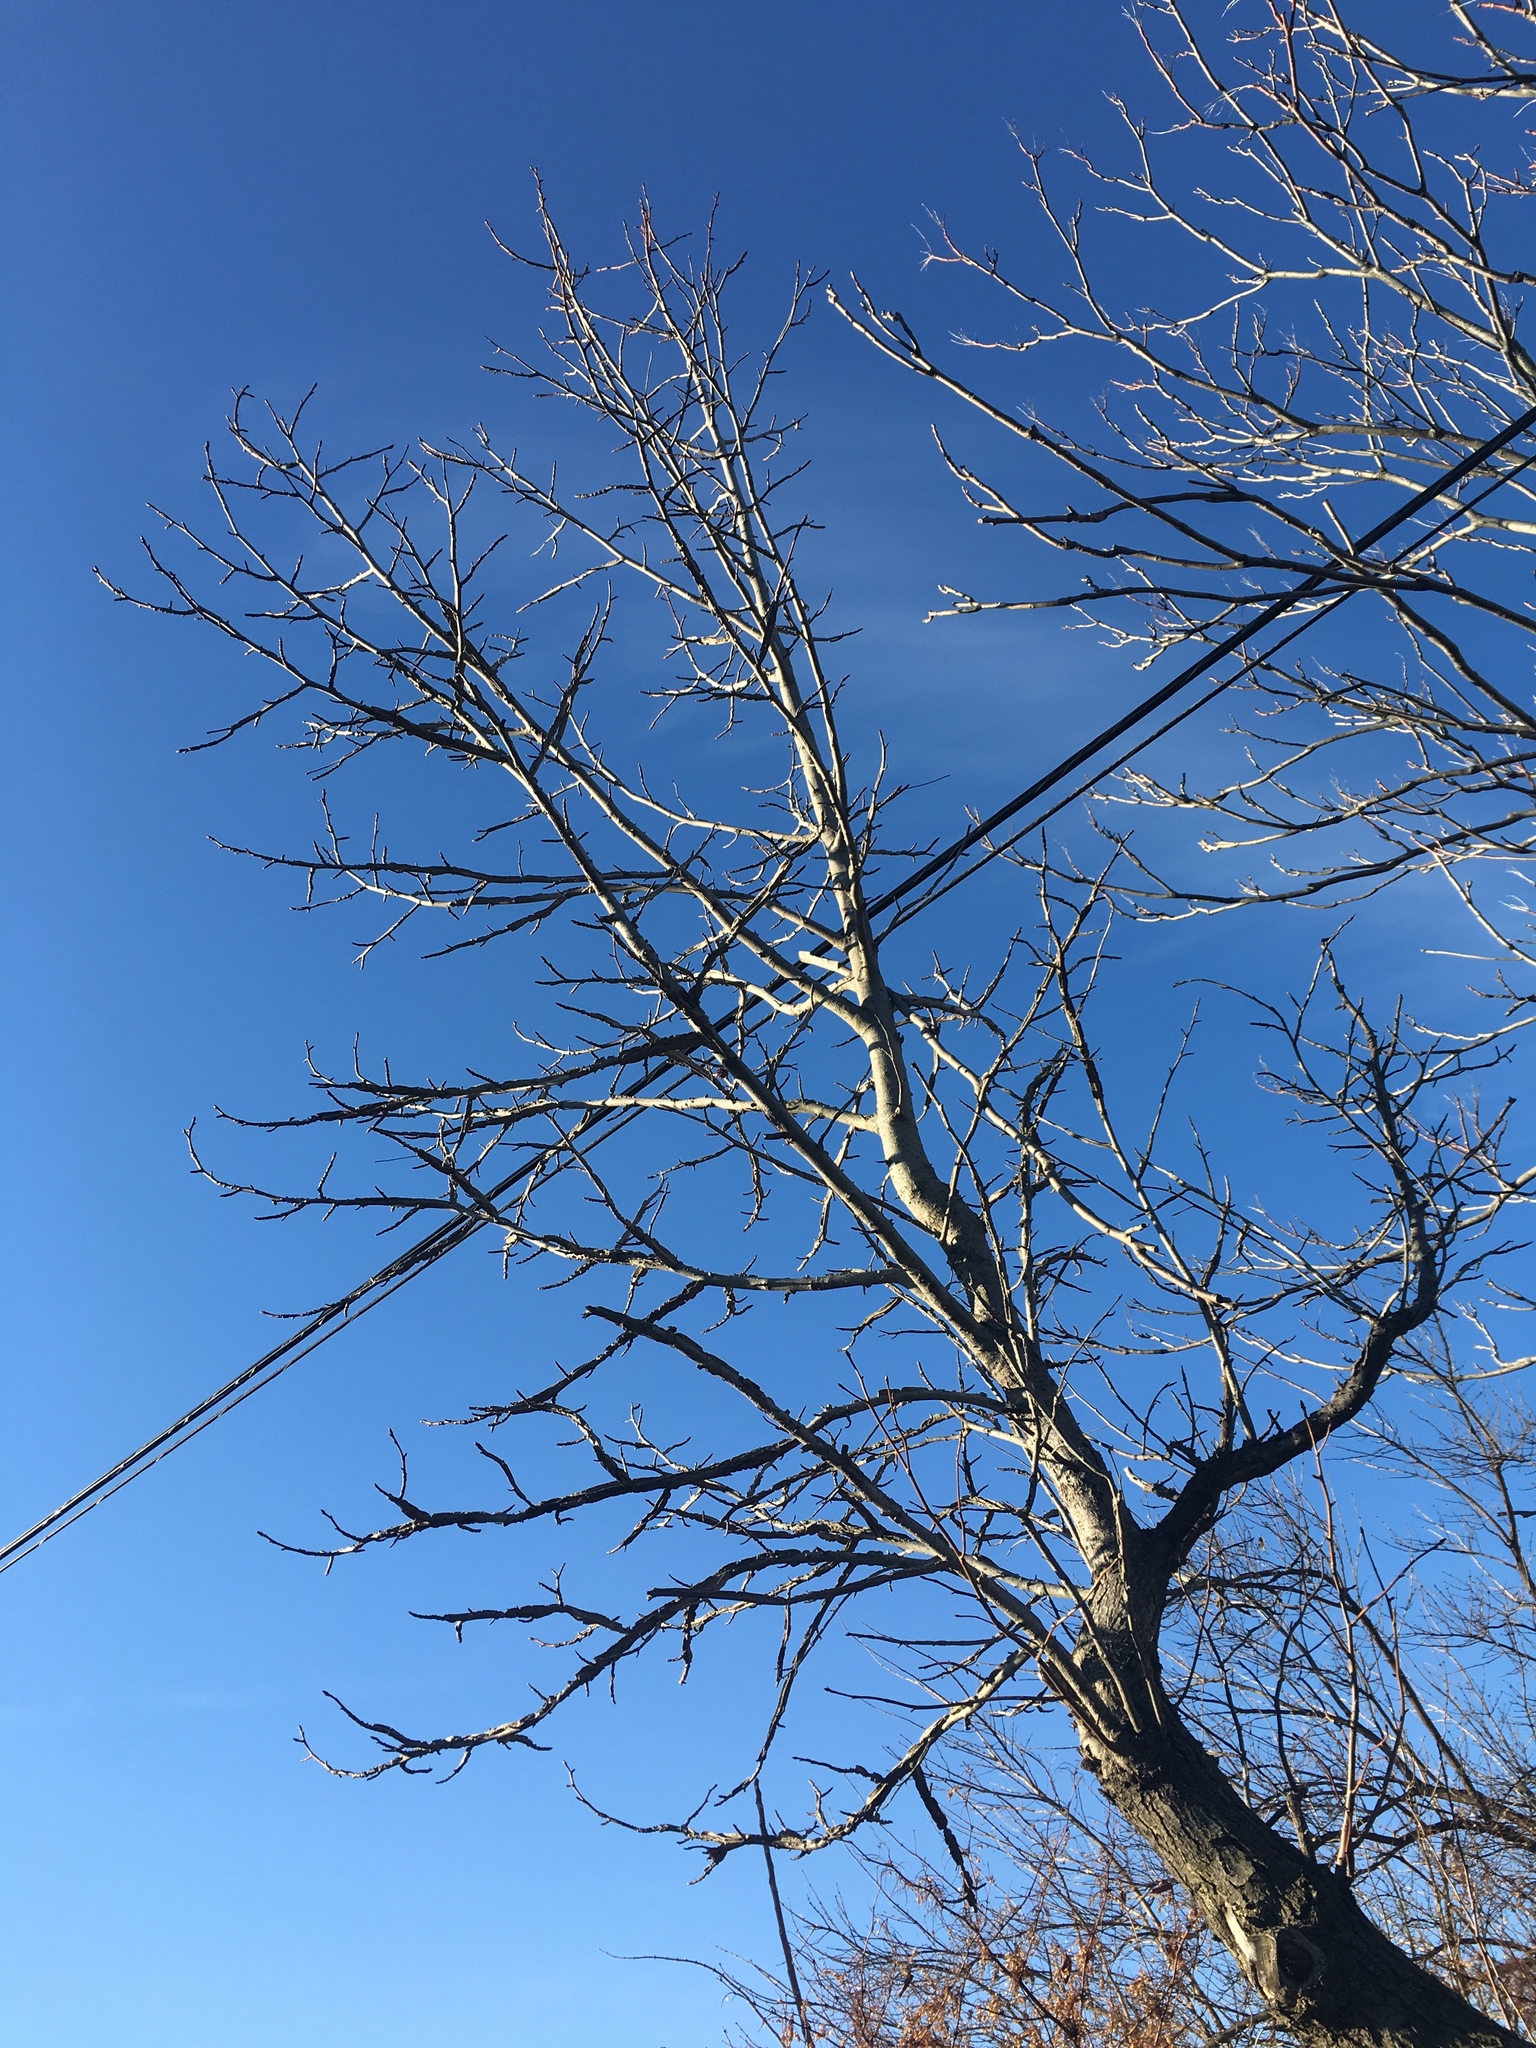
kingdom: Plantae
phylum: Tracheophyta
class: Magnoliopsida
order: Saxifragales
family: Altingiaceae
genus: Liquidambar
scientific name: Liquidambar styraciflua
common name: Sweet gum
